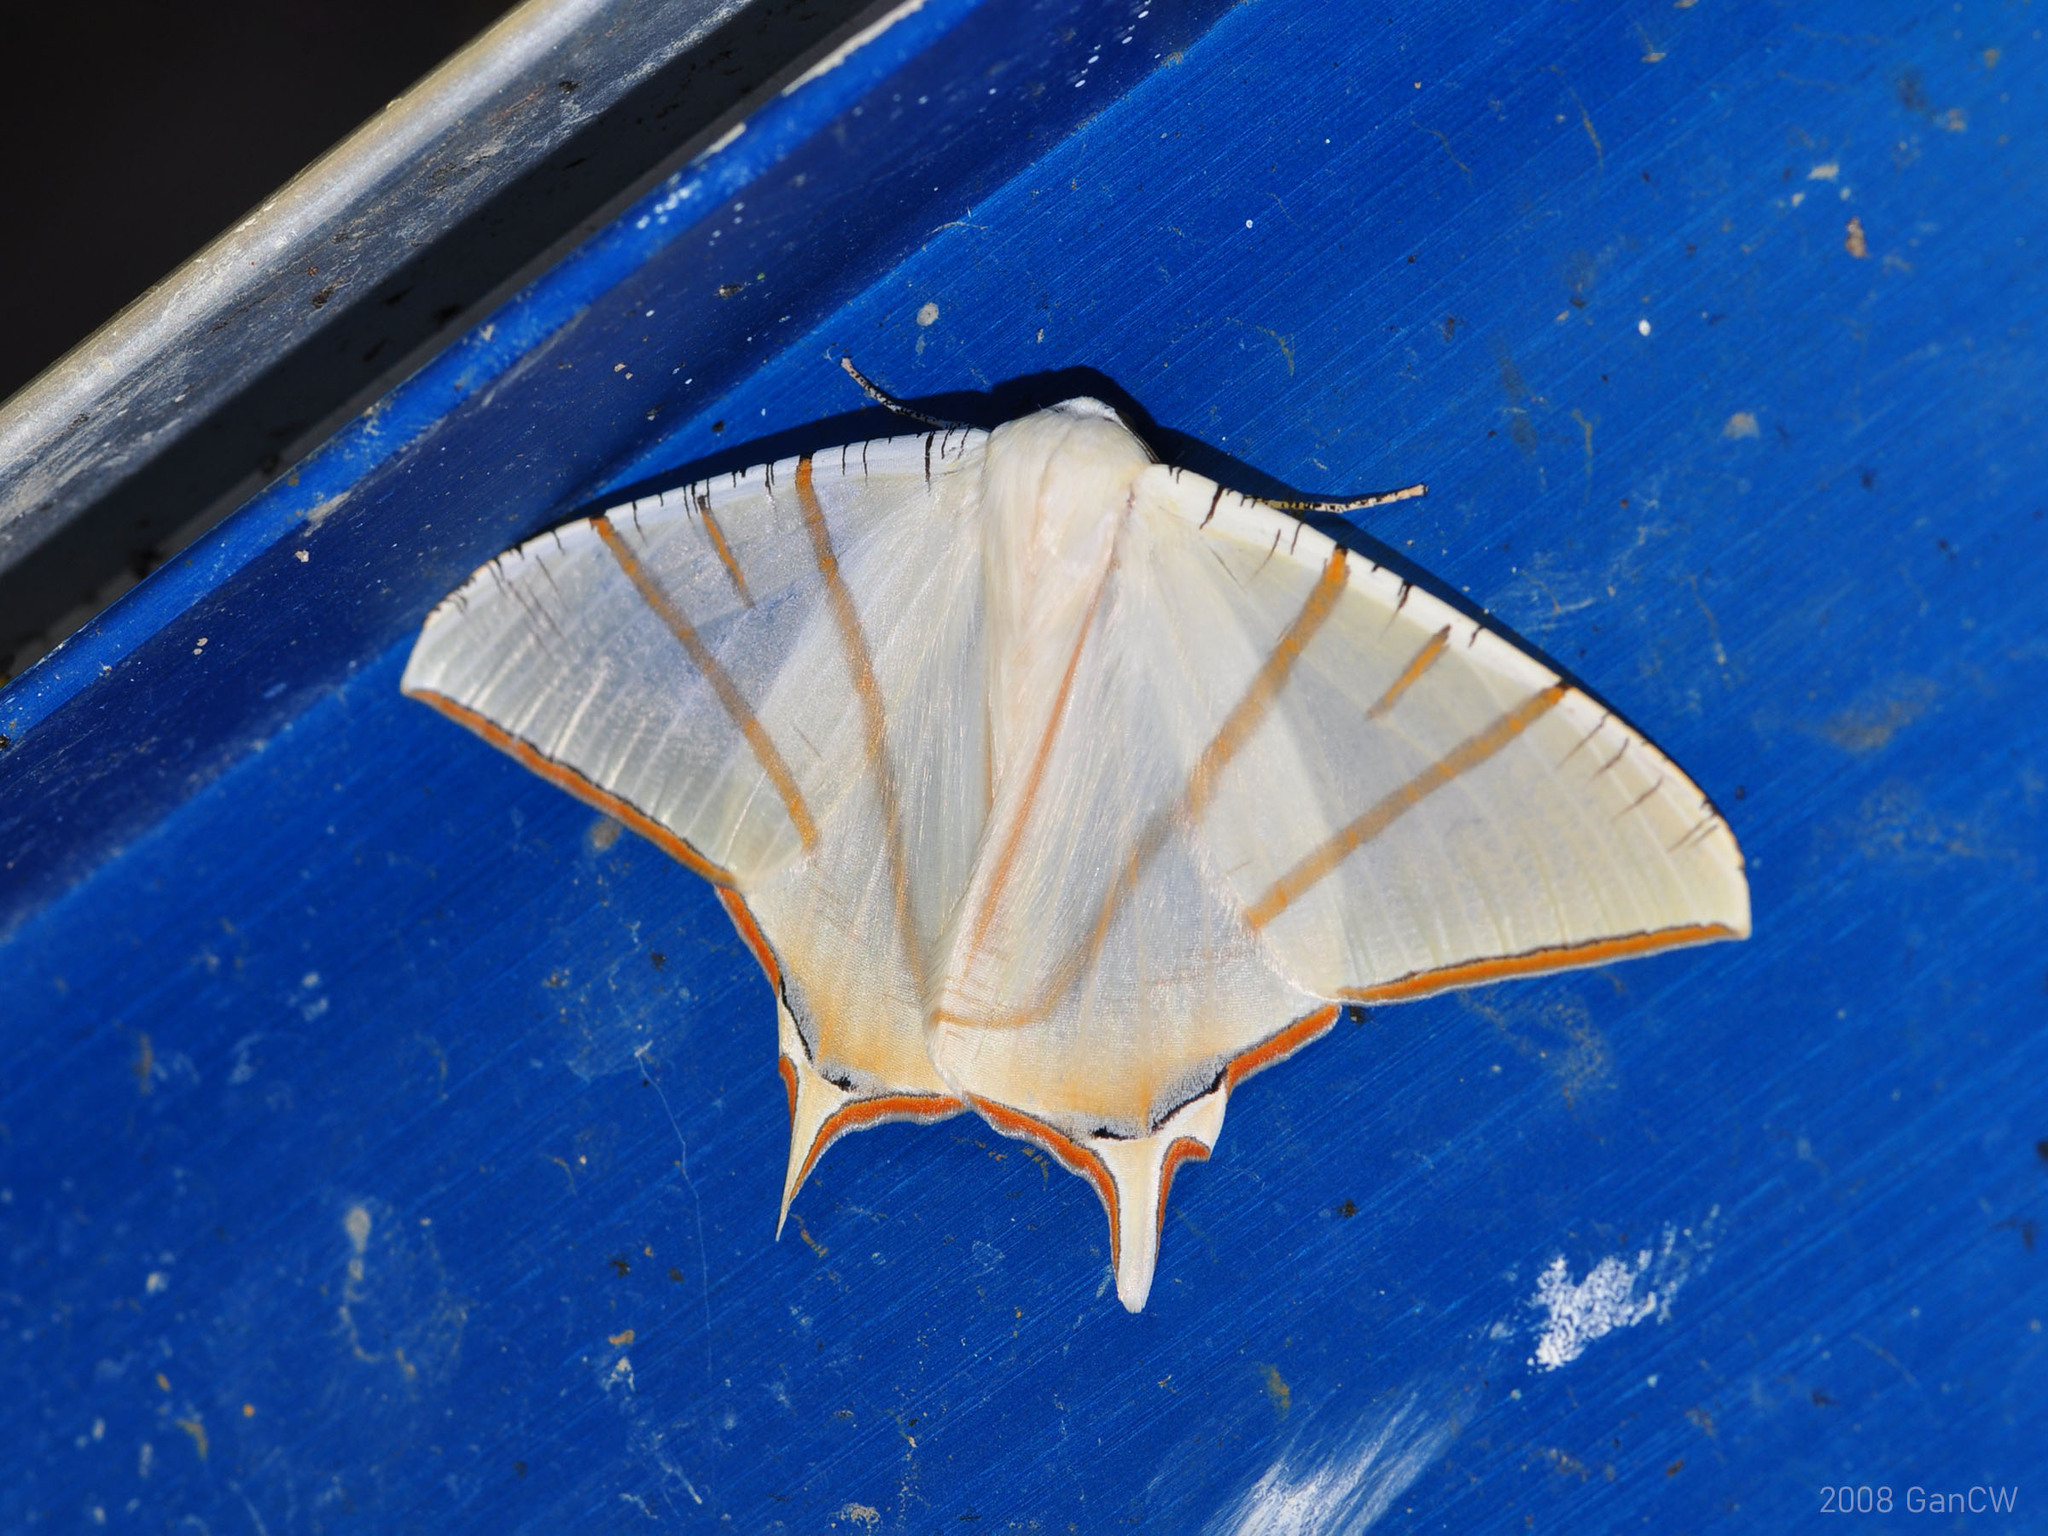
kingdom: Animalia
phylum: Arthropoda
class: Insecta
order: Lepidoptera
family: Geometridae
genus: Ourapteryx
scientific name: Ourapteryx claretta
